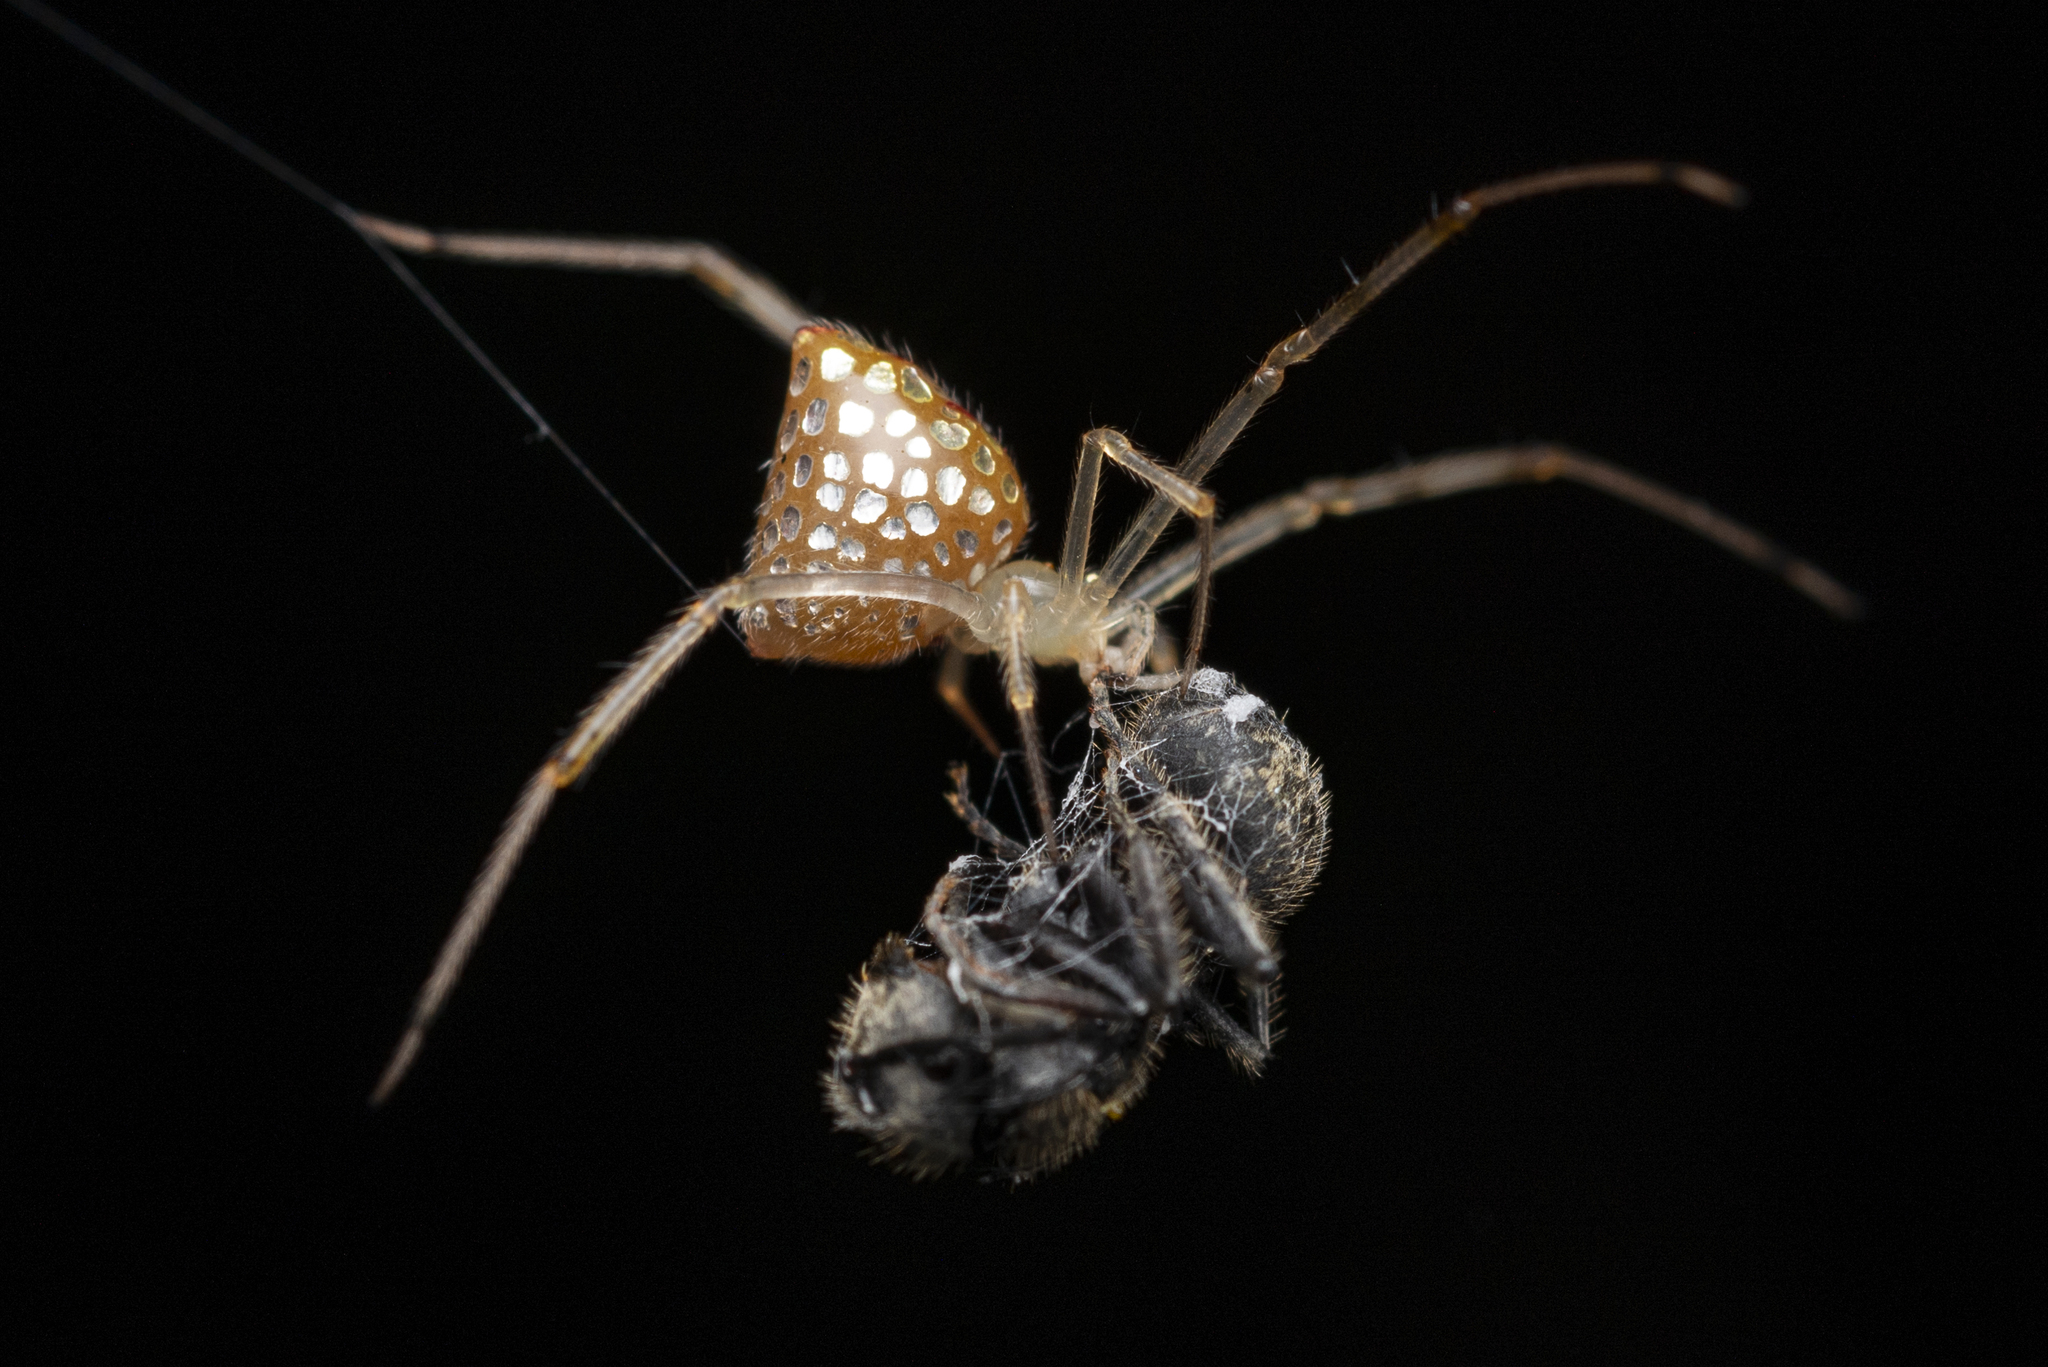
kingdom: Animalia
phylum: Arthropoda
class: Arachnida
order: Araneae
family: Theridiidae
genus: Thwaitesia
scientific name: Thwaitesia margaritifera
